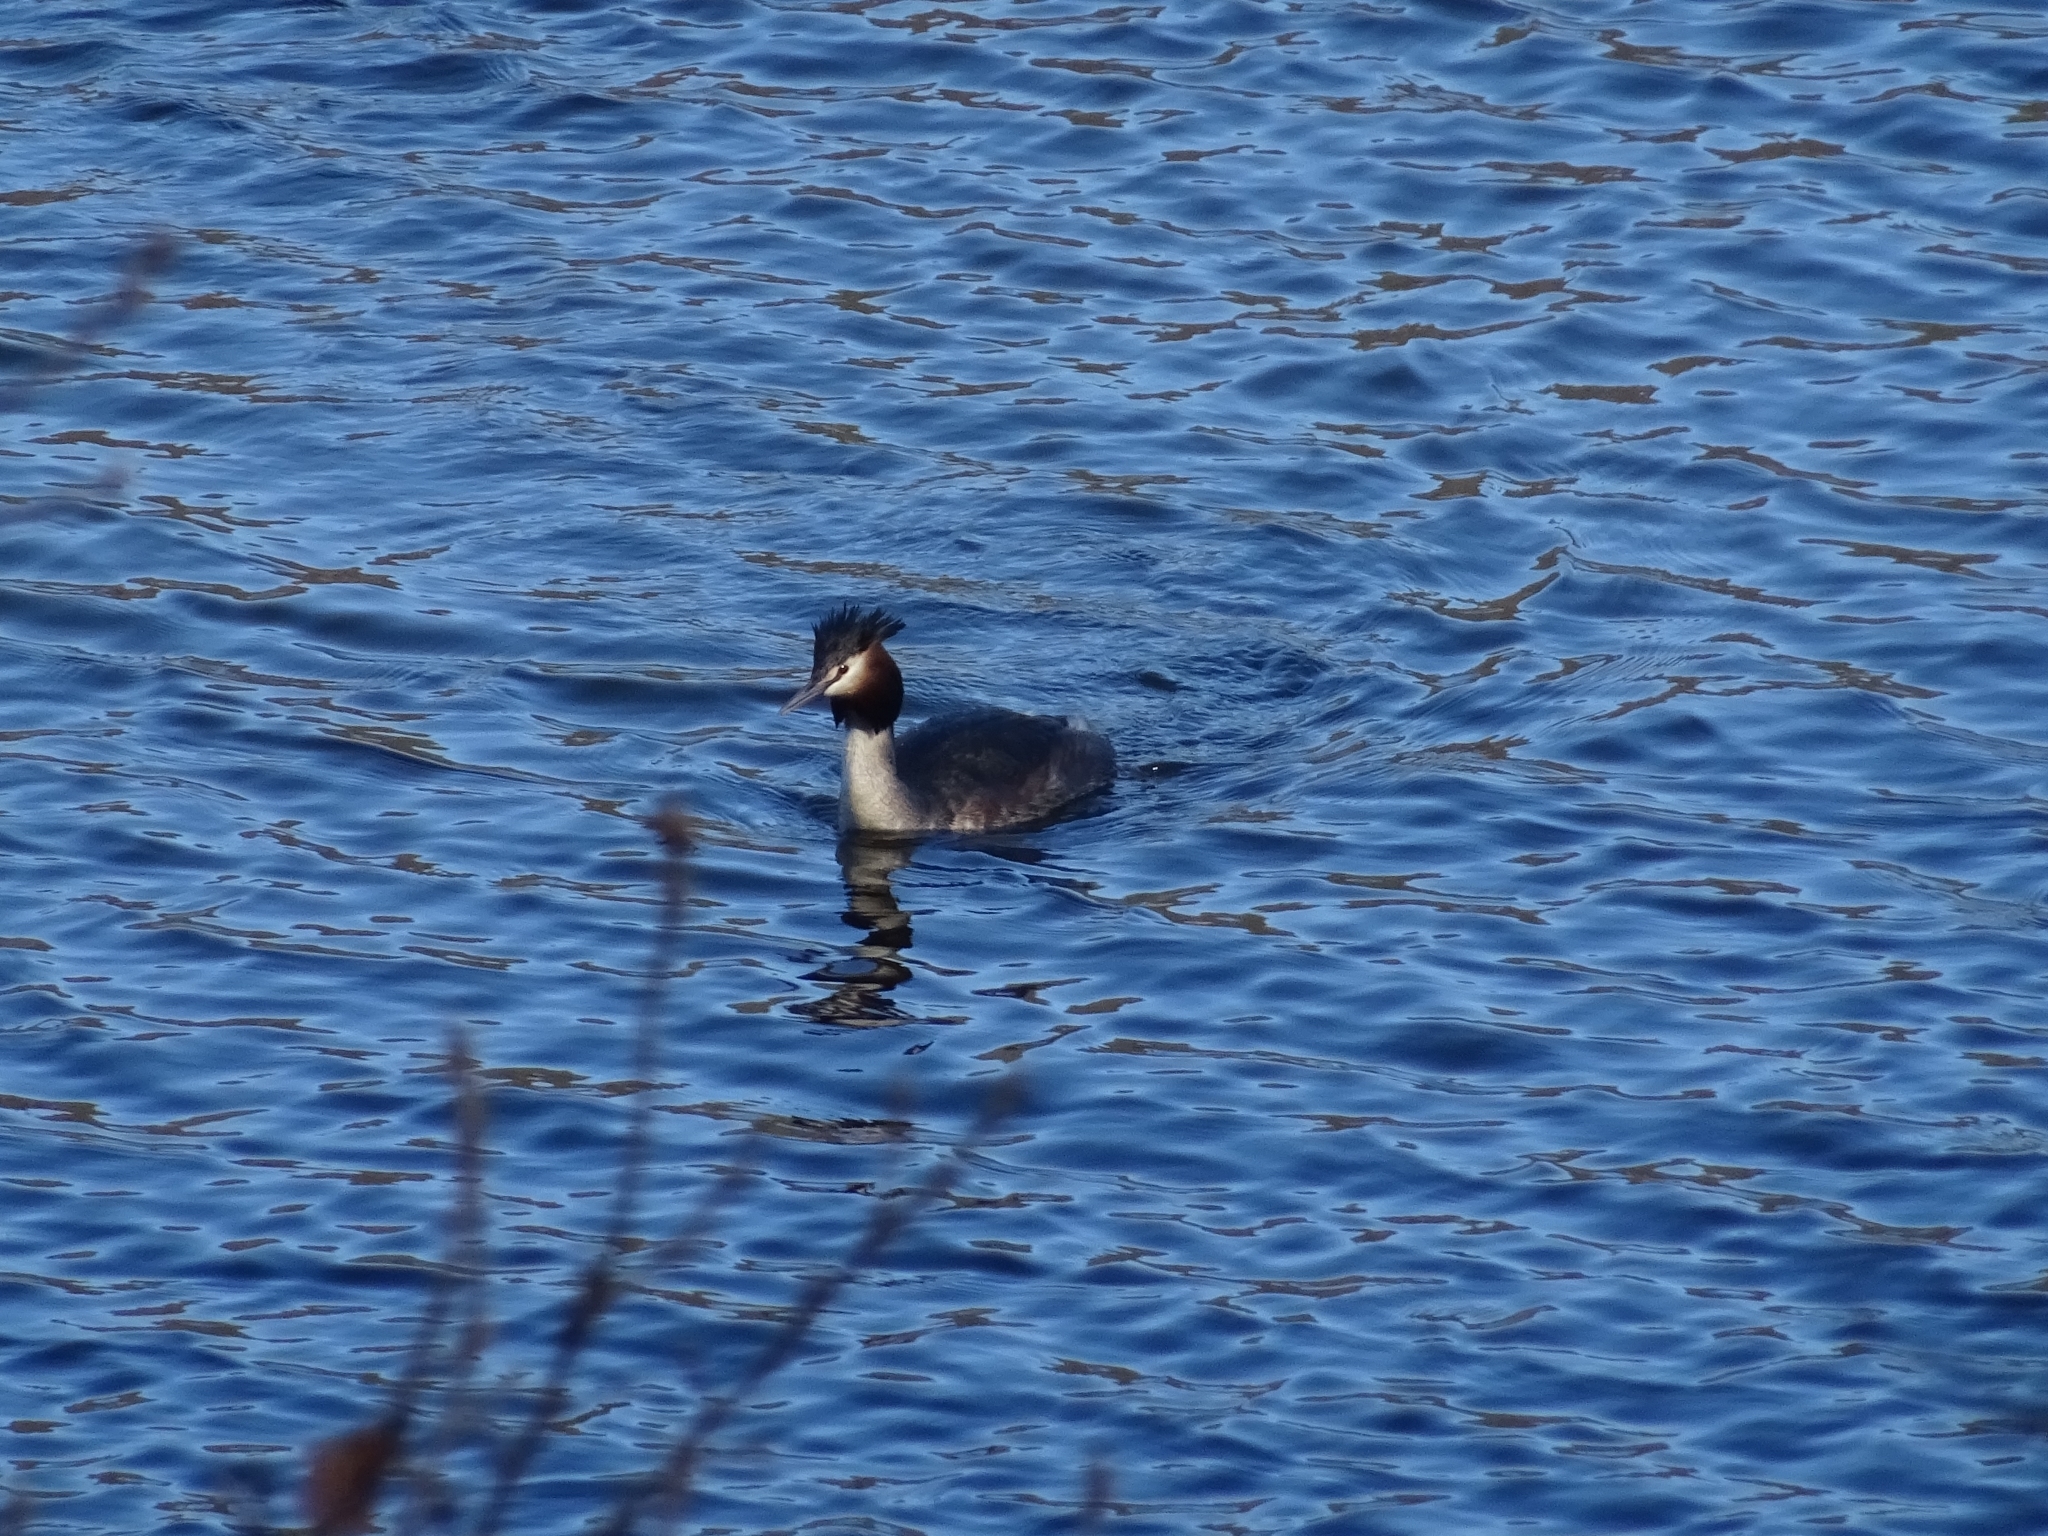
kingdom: Animalia
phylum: Chordata
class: Aves
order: Podicipediformes
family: Podicipedidae
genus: Podiceps
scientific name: Podiceps cristatus
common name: Great crested grebe
